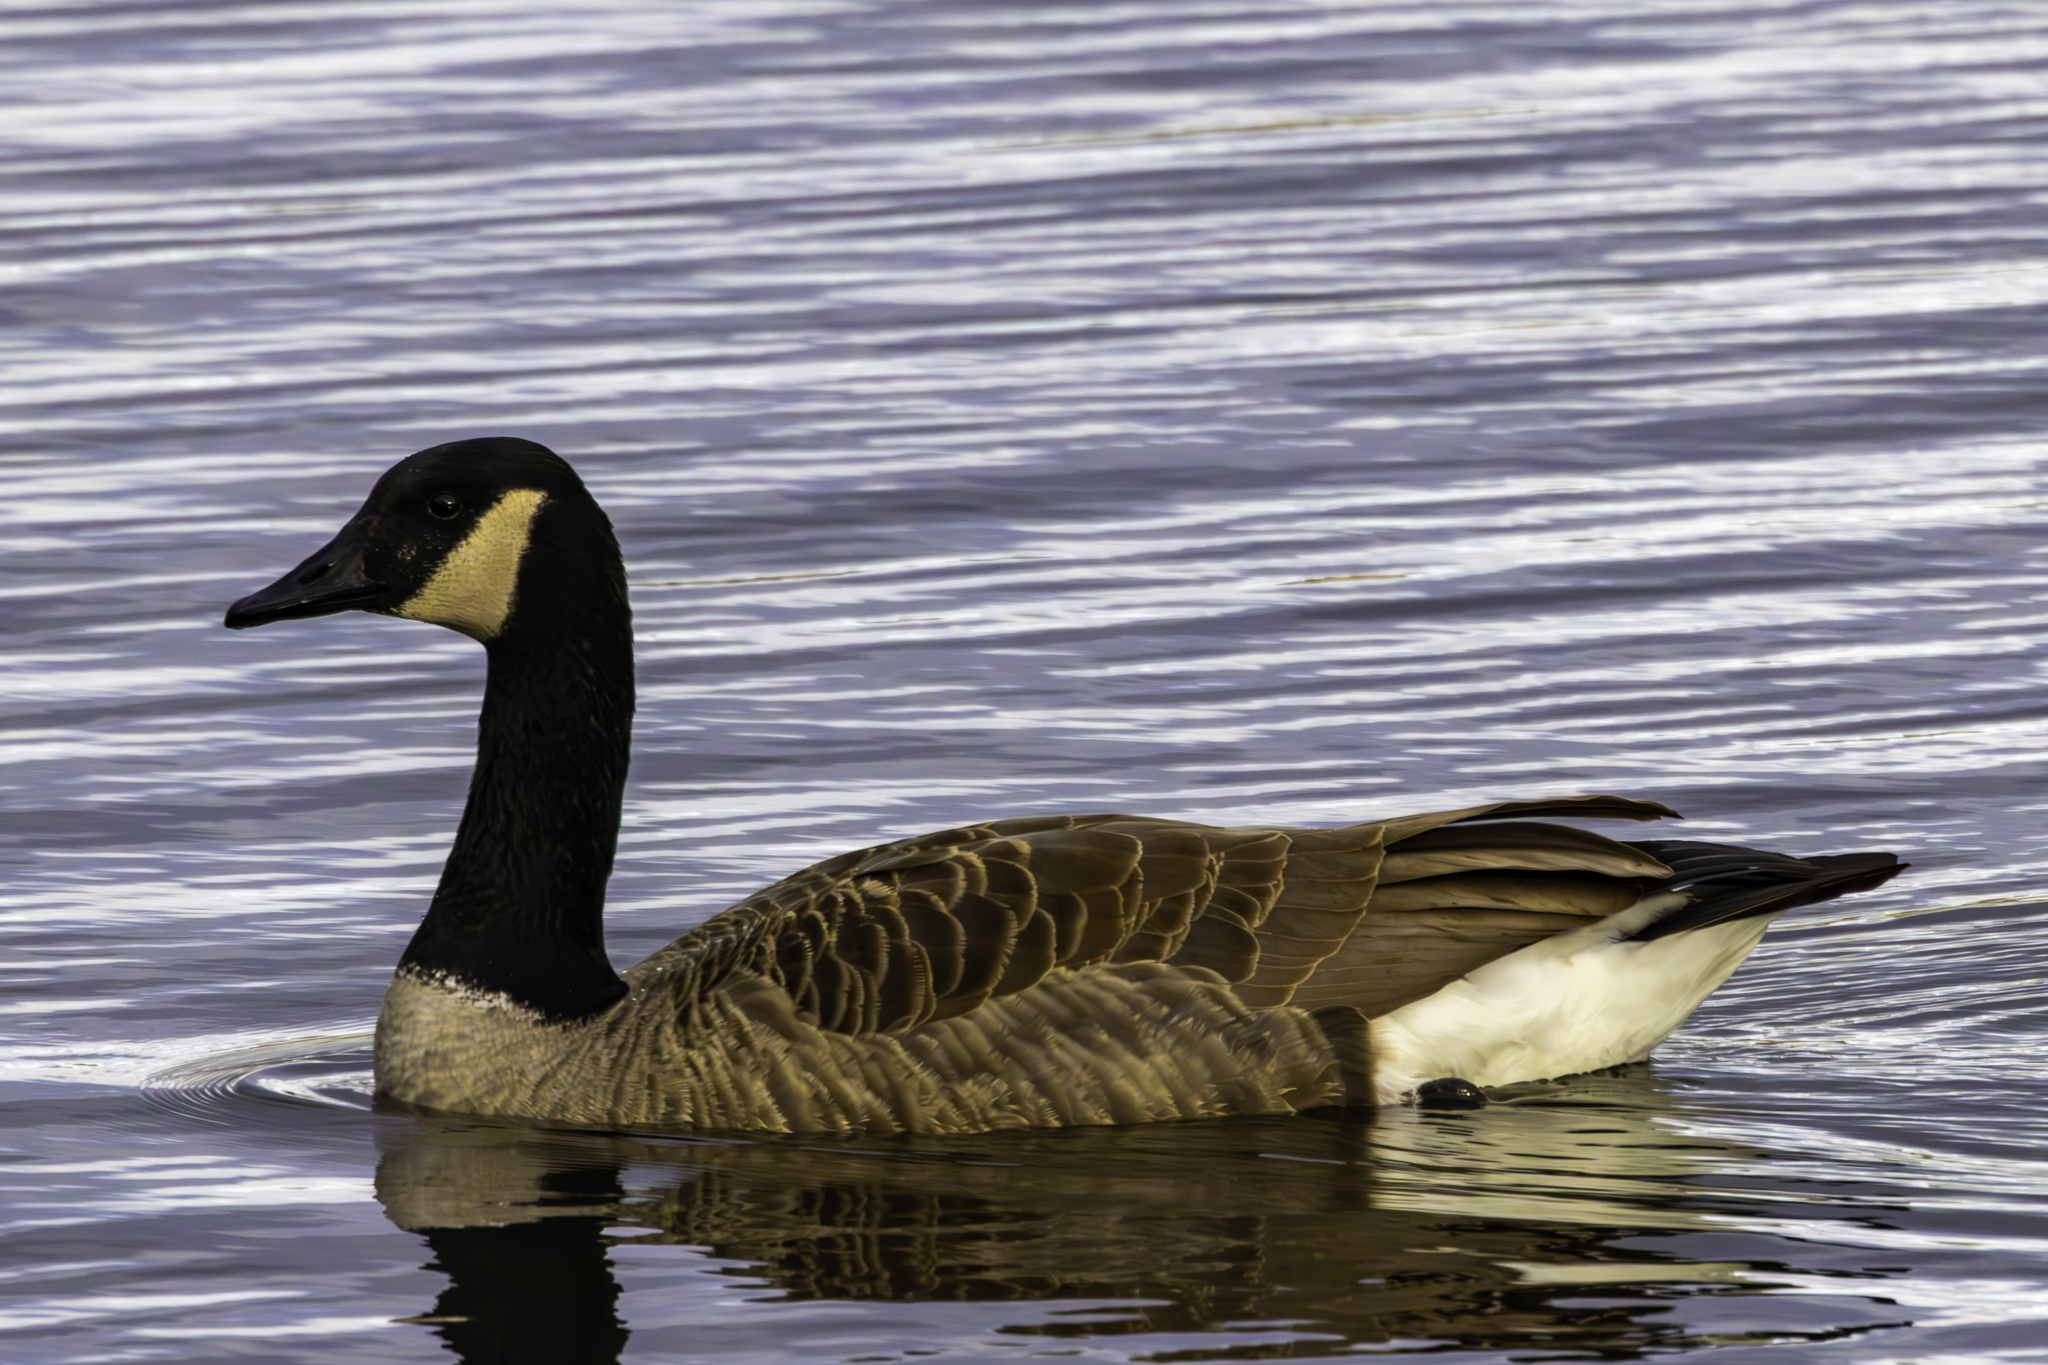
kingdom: Animalia
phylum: Chordata
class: Aves
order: Anseriformes
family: Anatidae
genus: Branta
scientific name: Branta canadensis
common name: Canada goose
